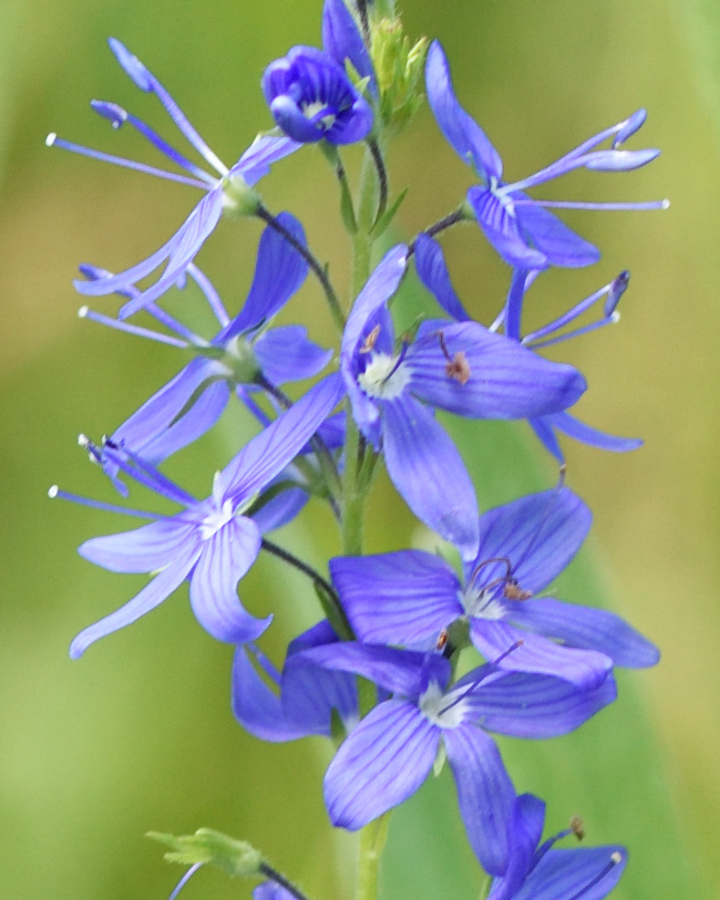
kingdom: Plantae
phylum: Tracheophyta
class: Magnoliopsida
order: Lamiales
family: Plantaginaceae
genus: Veronica
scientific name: Veronica teucrium
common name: Large speedwell
